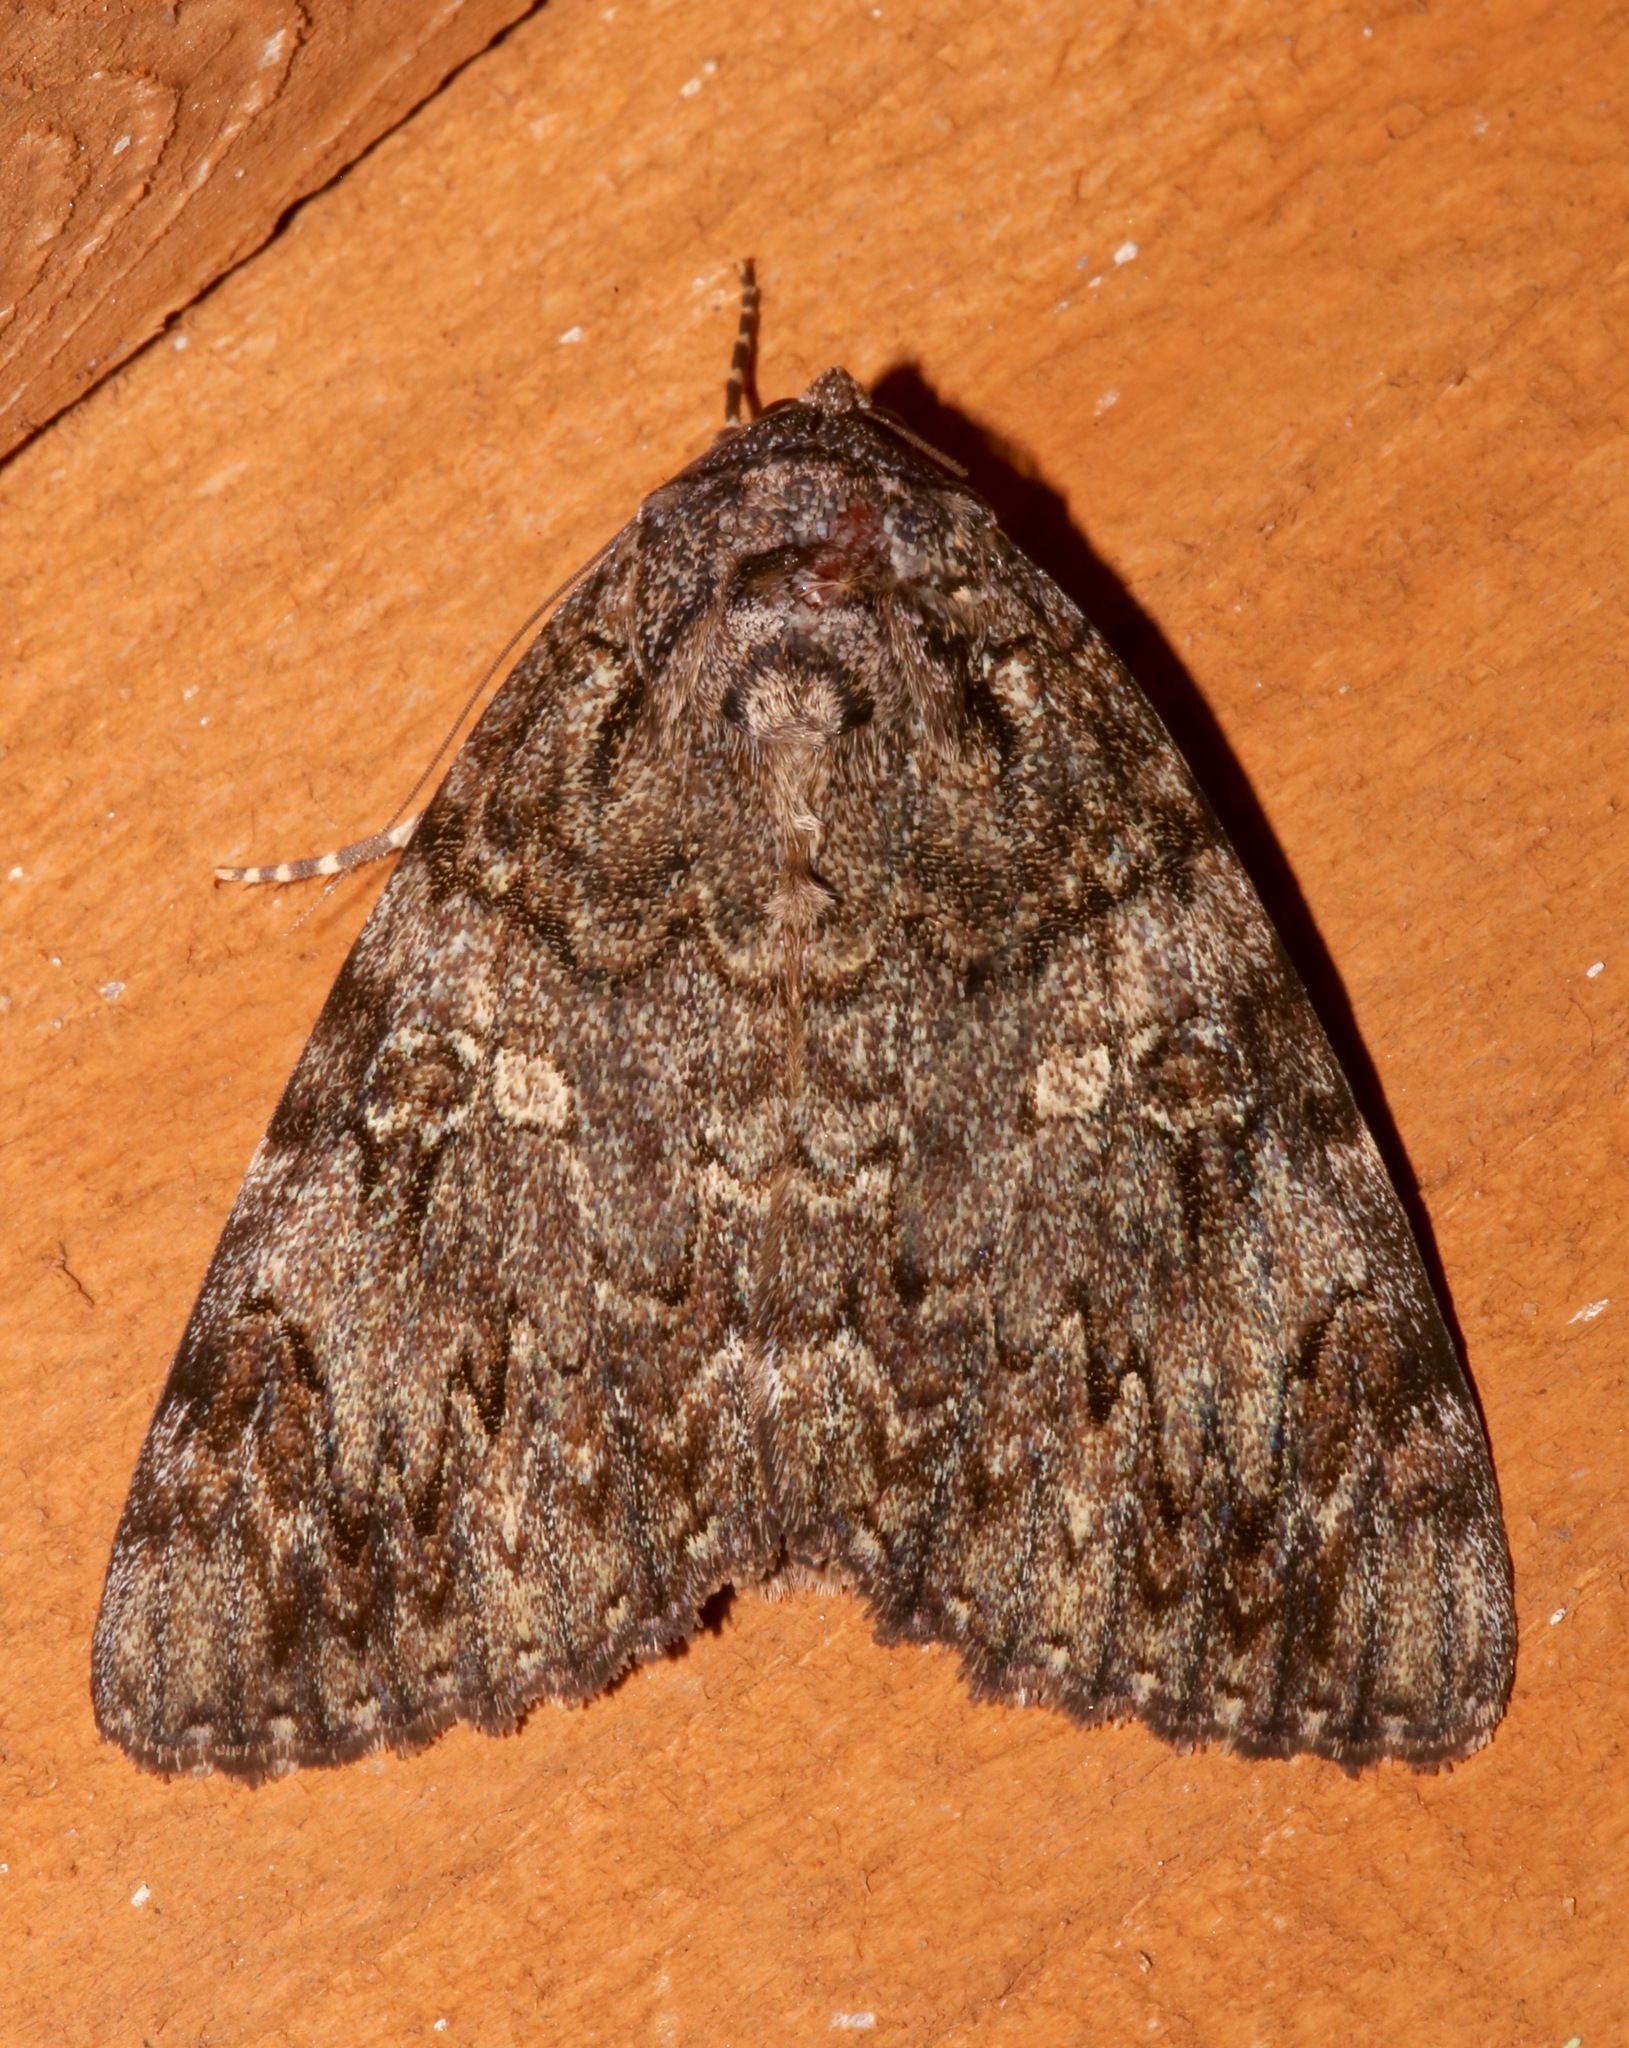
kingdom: Animalia
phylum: Arthropoda
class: Insecta
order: Lepidoptera
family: Erebidae
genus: Catocala
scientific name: Catocala umbrosa
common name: Umber underwing
